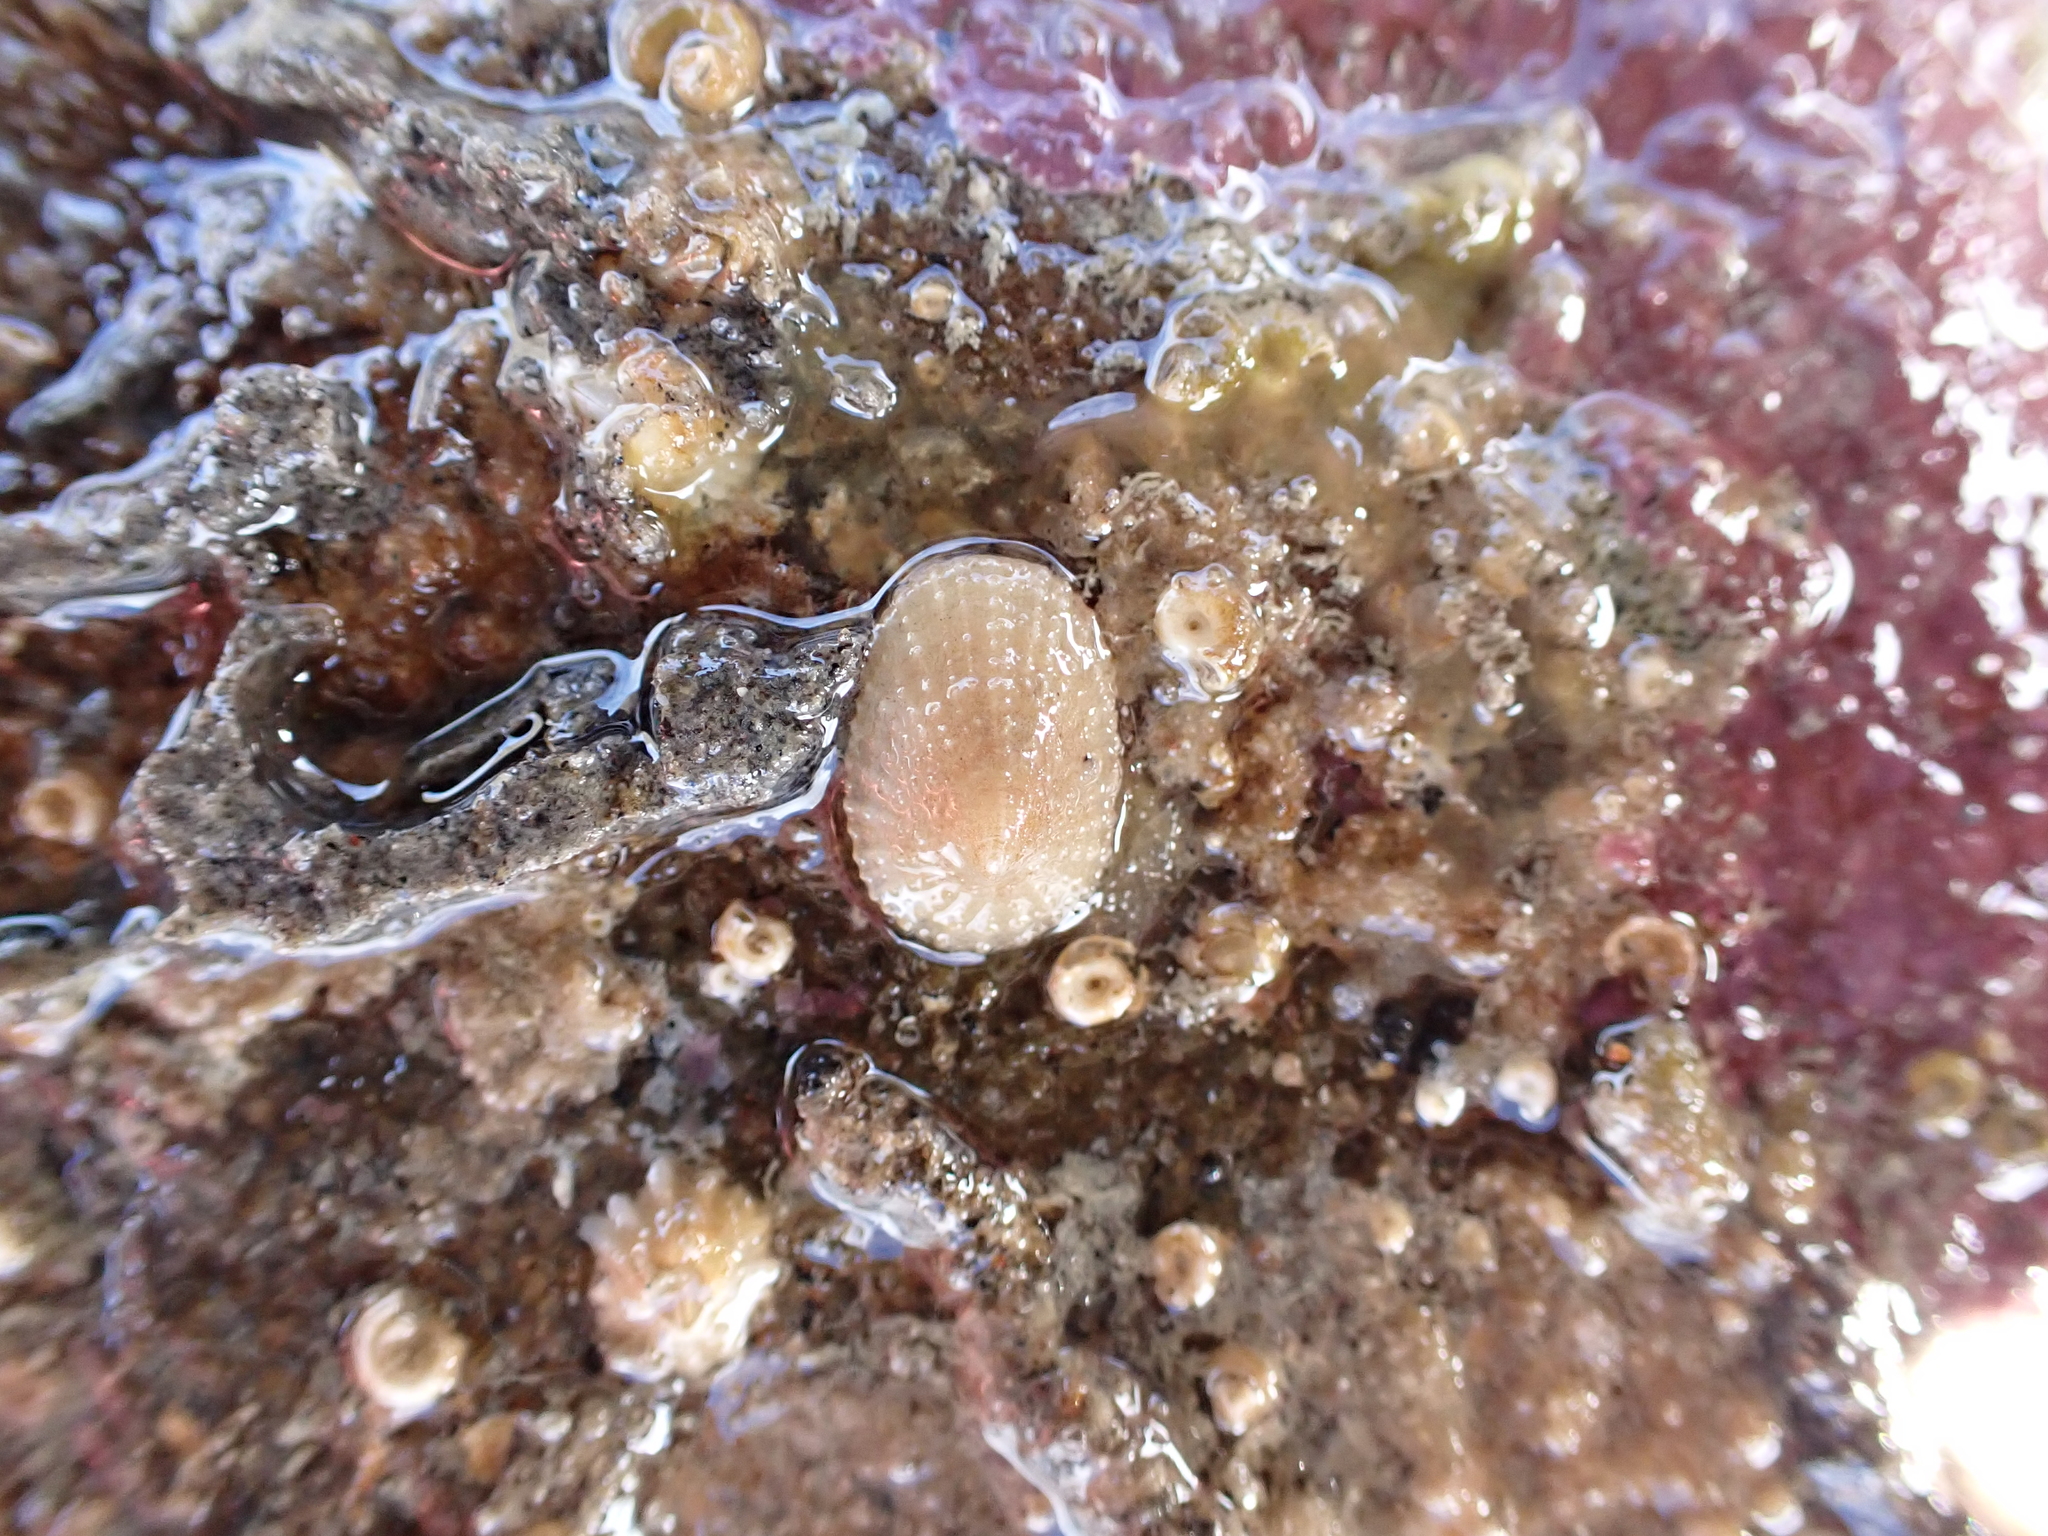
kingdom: Animalia
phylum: Mollusca
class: Gastropoda
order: Lepetellida
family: Fissurellidae
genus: Tugali
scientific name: Tugali suteri
